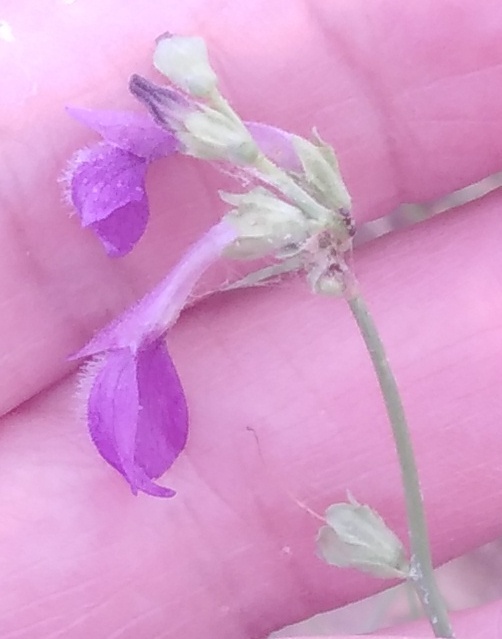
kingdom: Plantae
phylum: Tracheophyta
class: Magnoliopsida
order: Lamiales
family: Mazaceae
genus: Dodartia
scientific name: Dodartia orientalis
